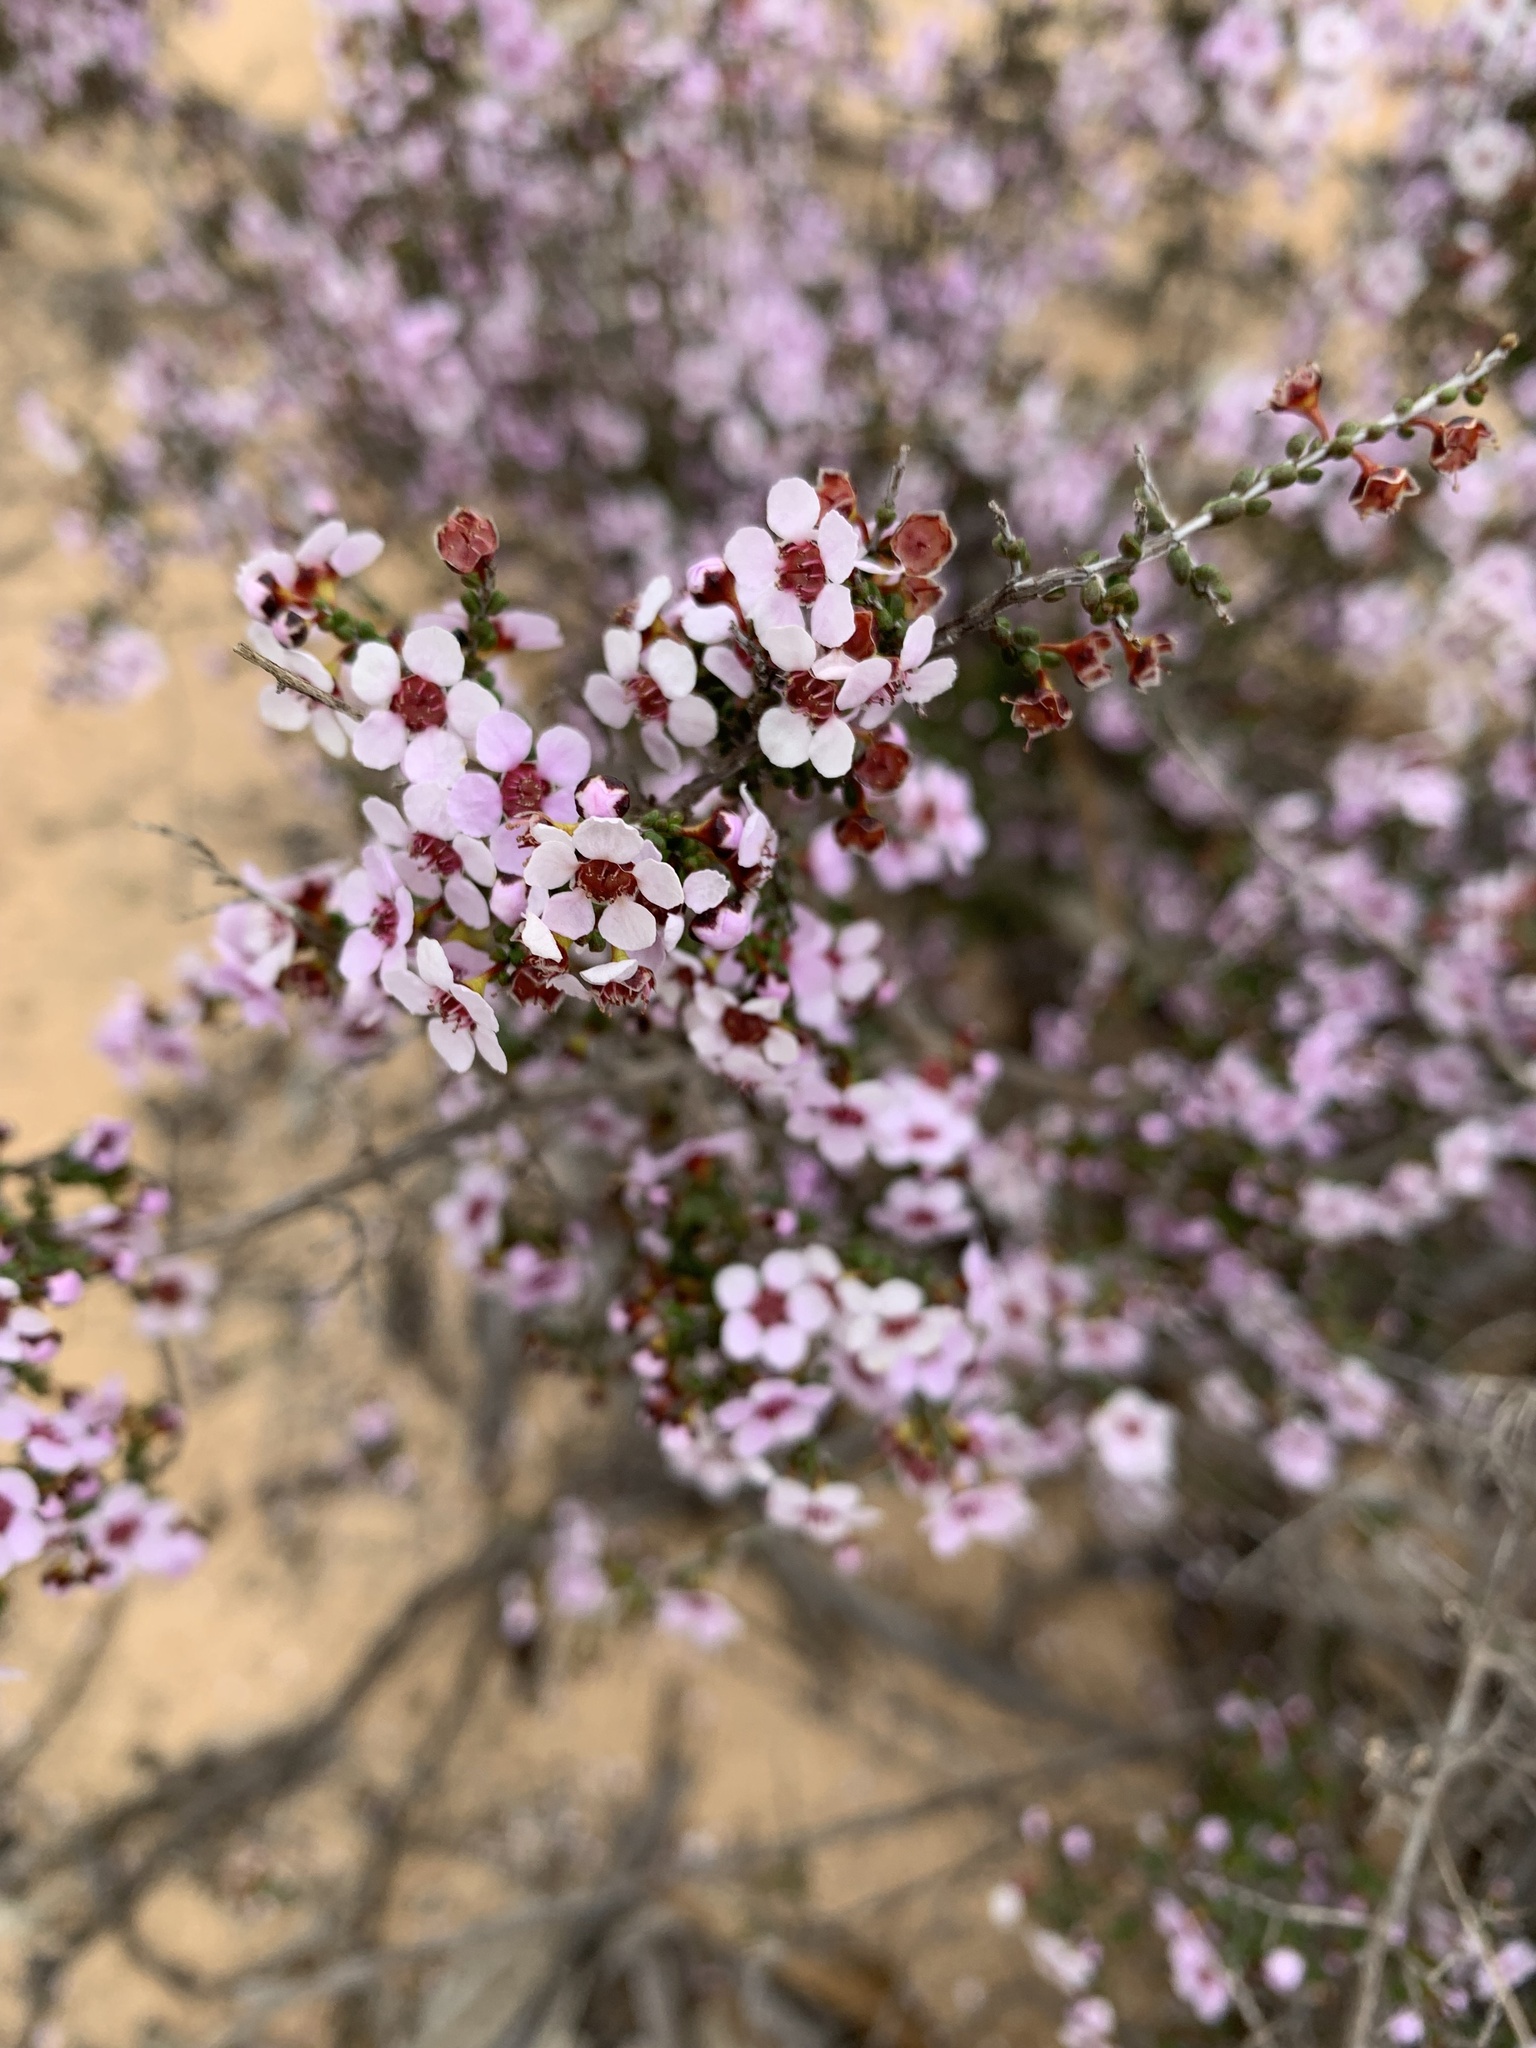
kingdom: Plantae
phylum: Tracheophyta
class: Magnoliopsida
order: Myrtales
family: Myrtaceae
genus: Rinzia
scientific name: Rinzia orientalis
